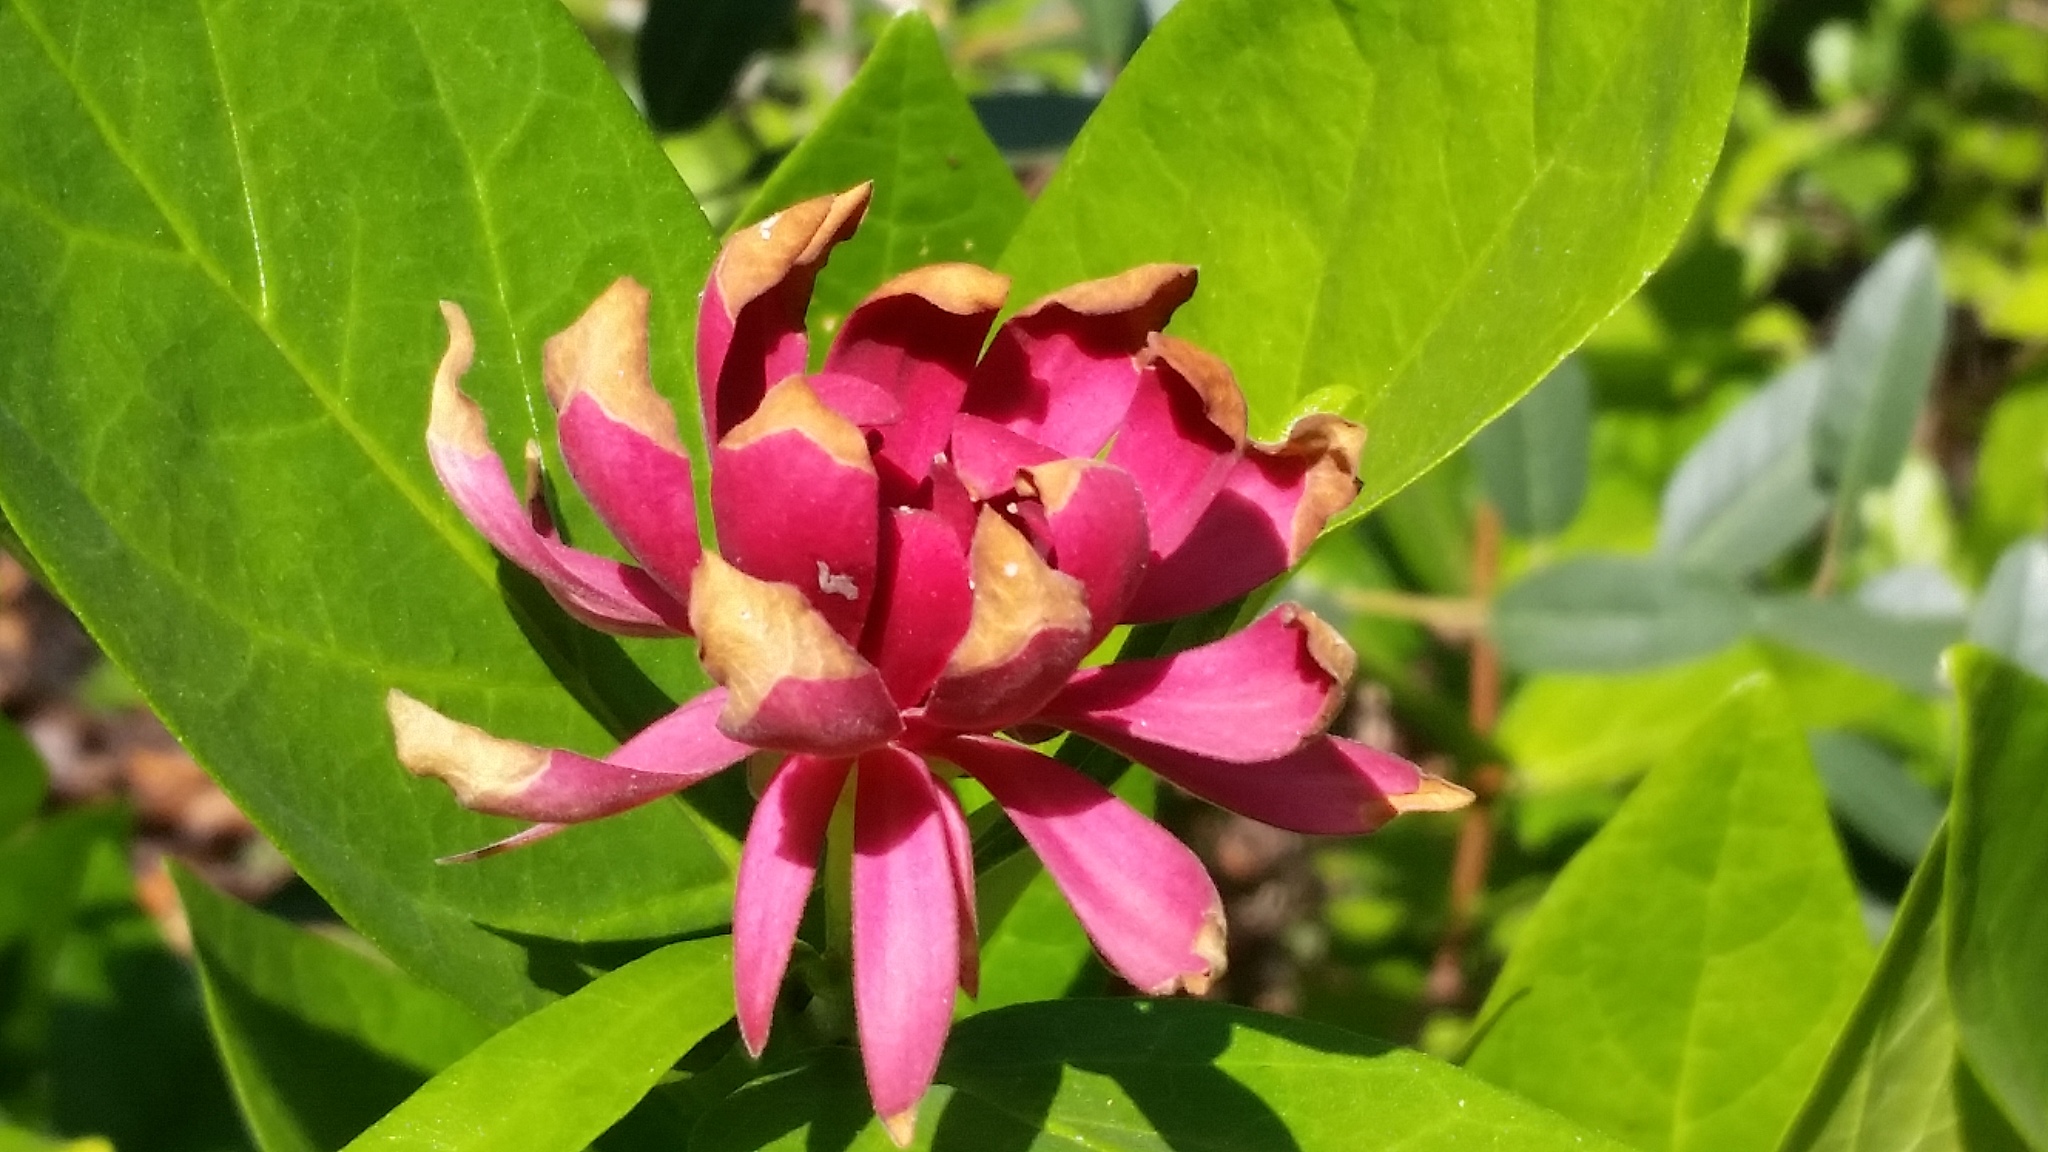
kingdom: Plantae
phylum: Tracheophyta
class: Magnoliopsida
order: Laurales
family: Calycanthaceae
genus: Calycanthus
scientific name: Calycanthus occidentalis
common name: California spicebush
